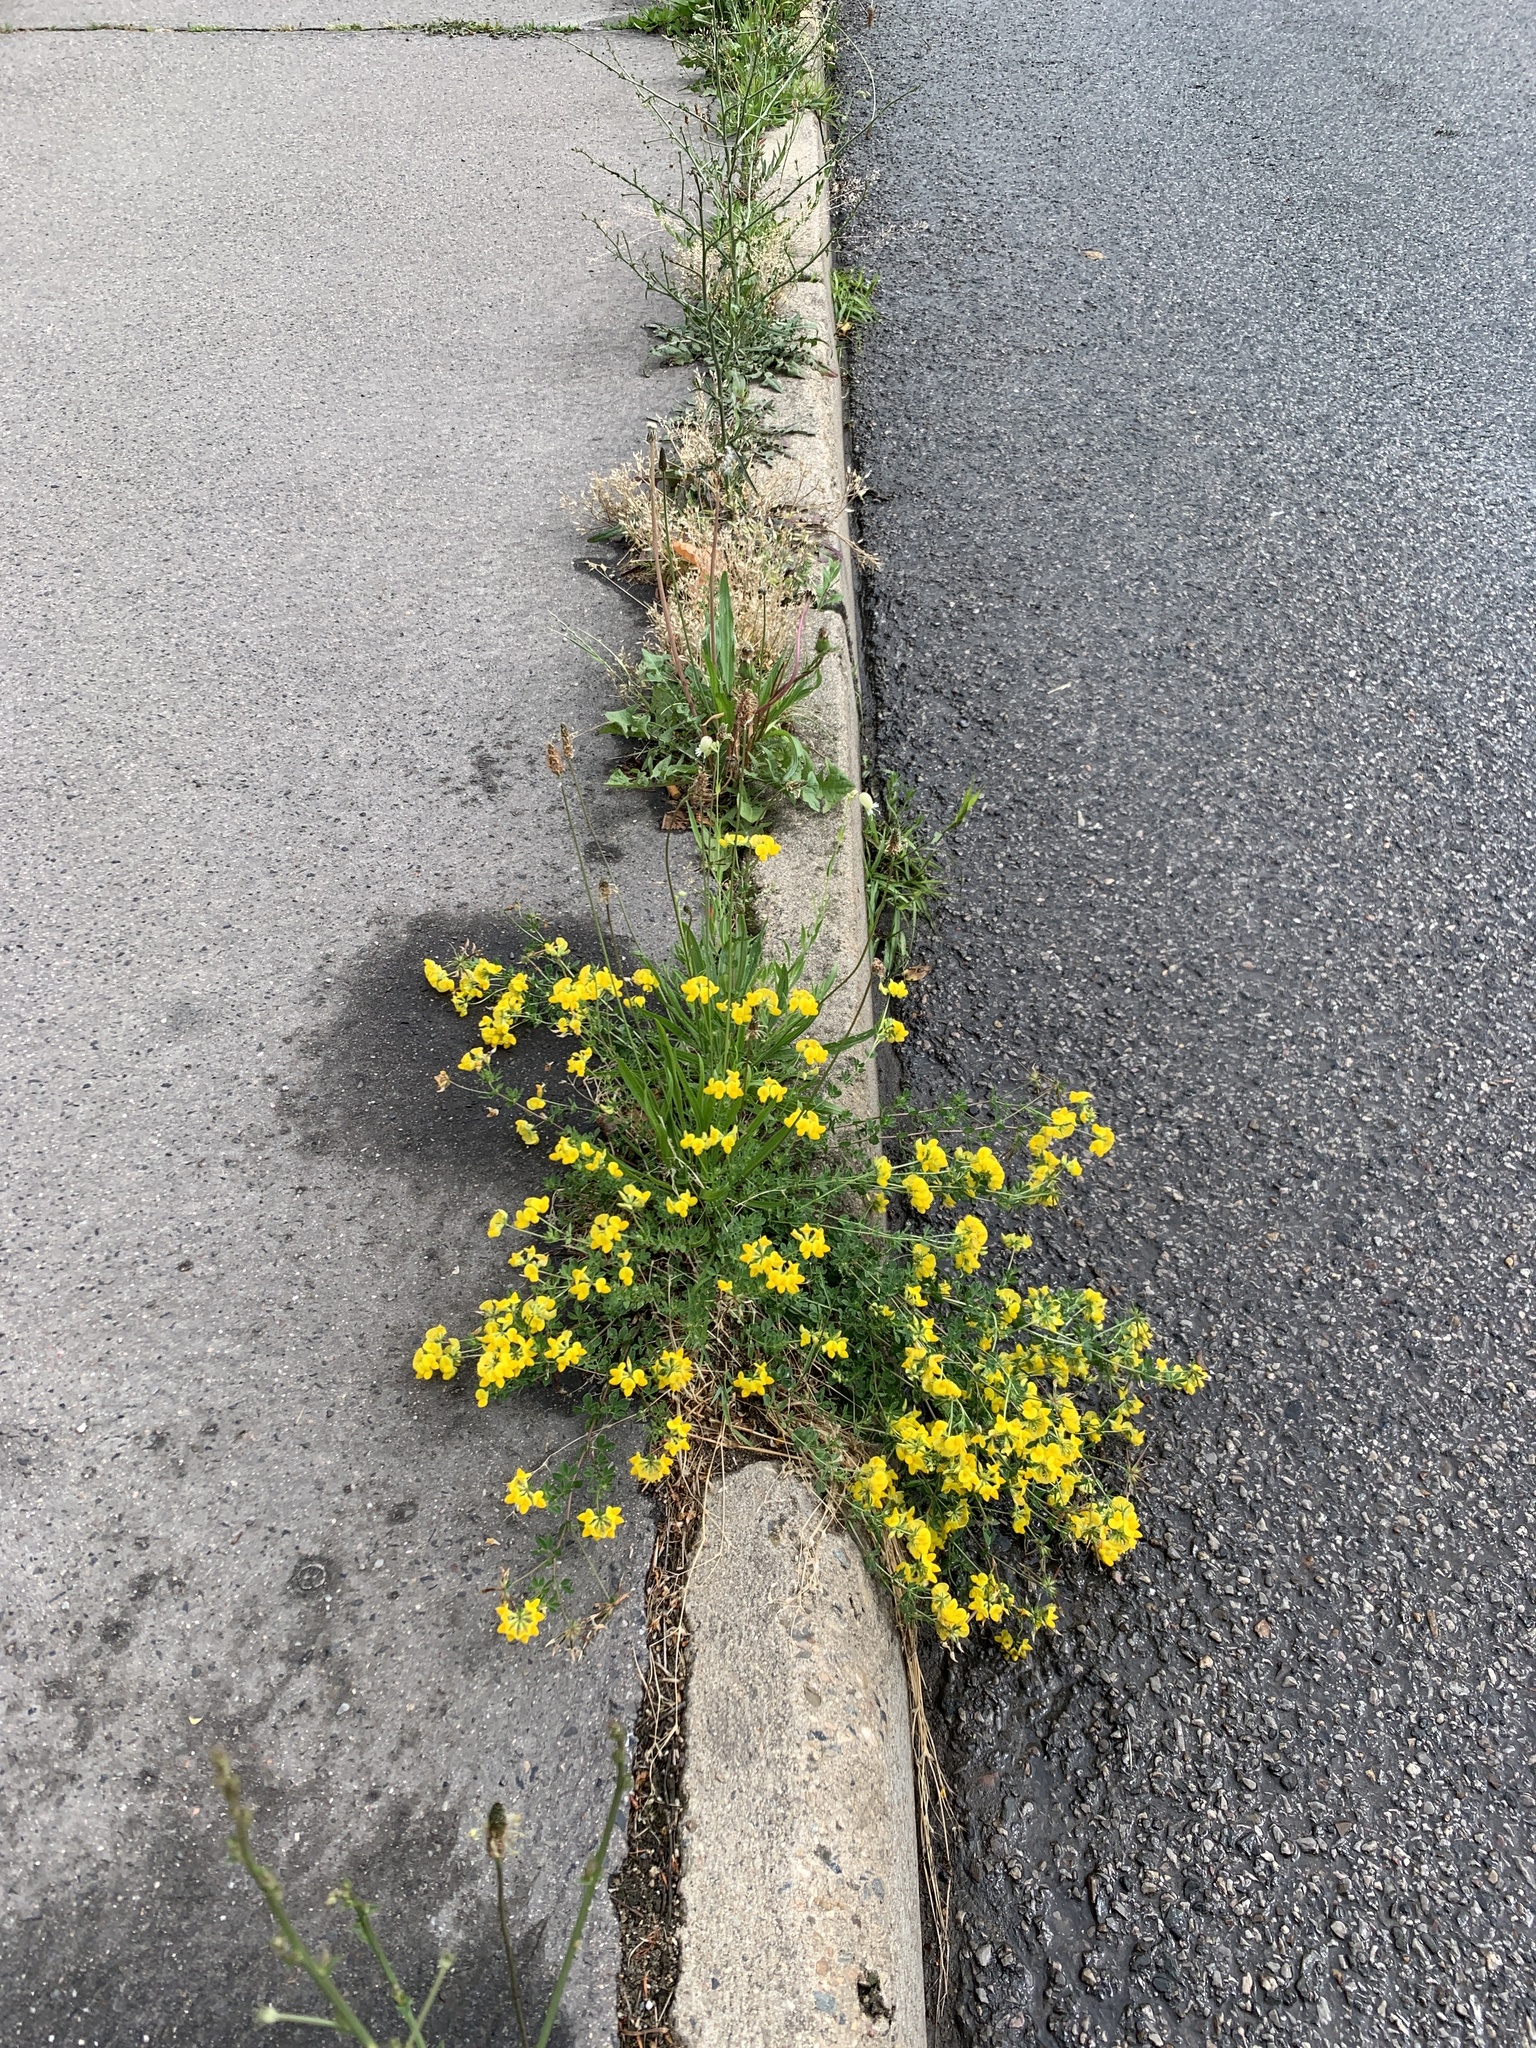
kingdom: Plantae
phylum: Tracheophyta
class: Magnoliopsida
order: Fabales
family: Fabaceae
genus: Lotus
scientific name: Lotus corniculatus
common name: Common bird's-foot-trefoil
